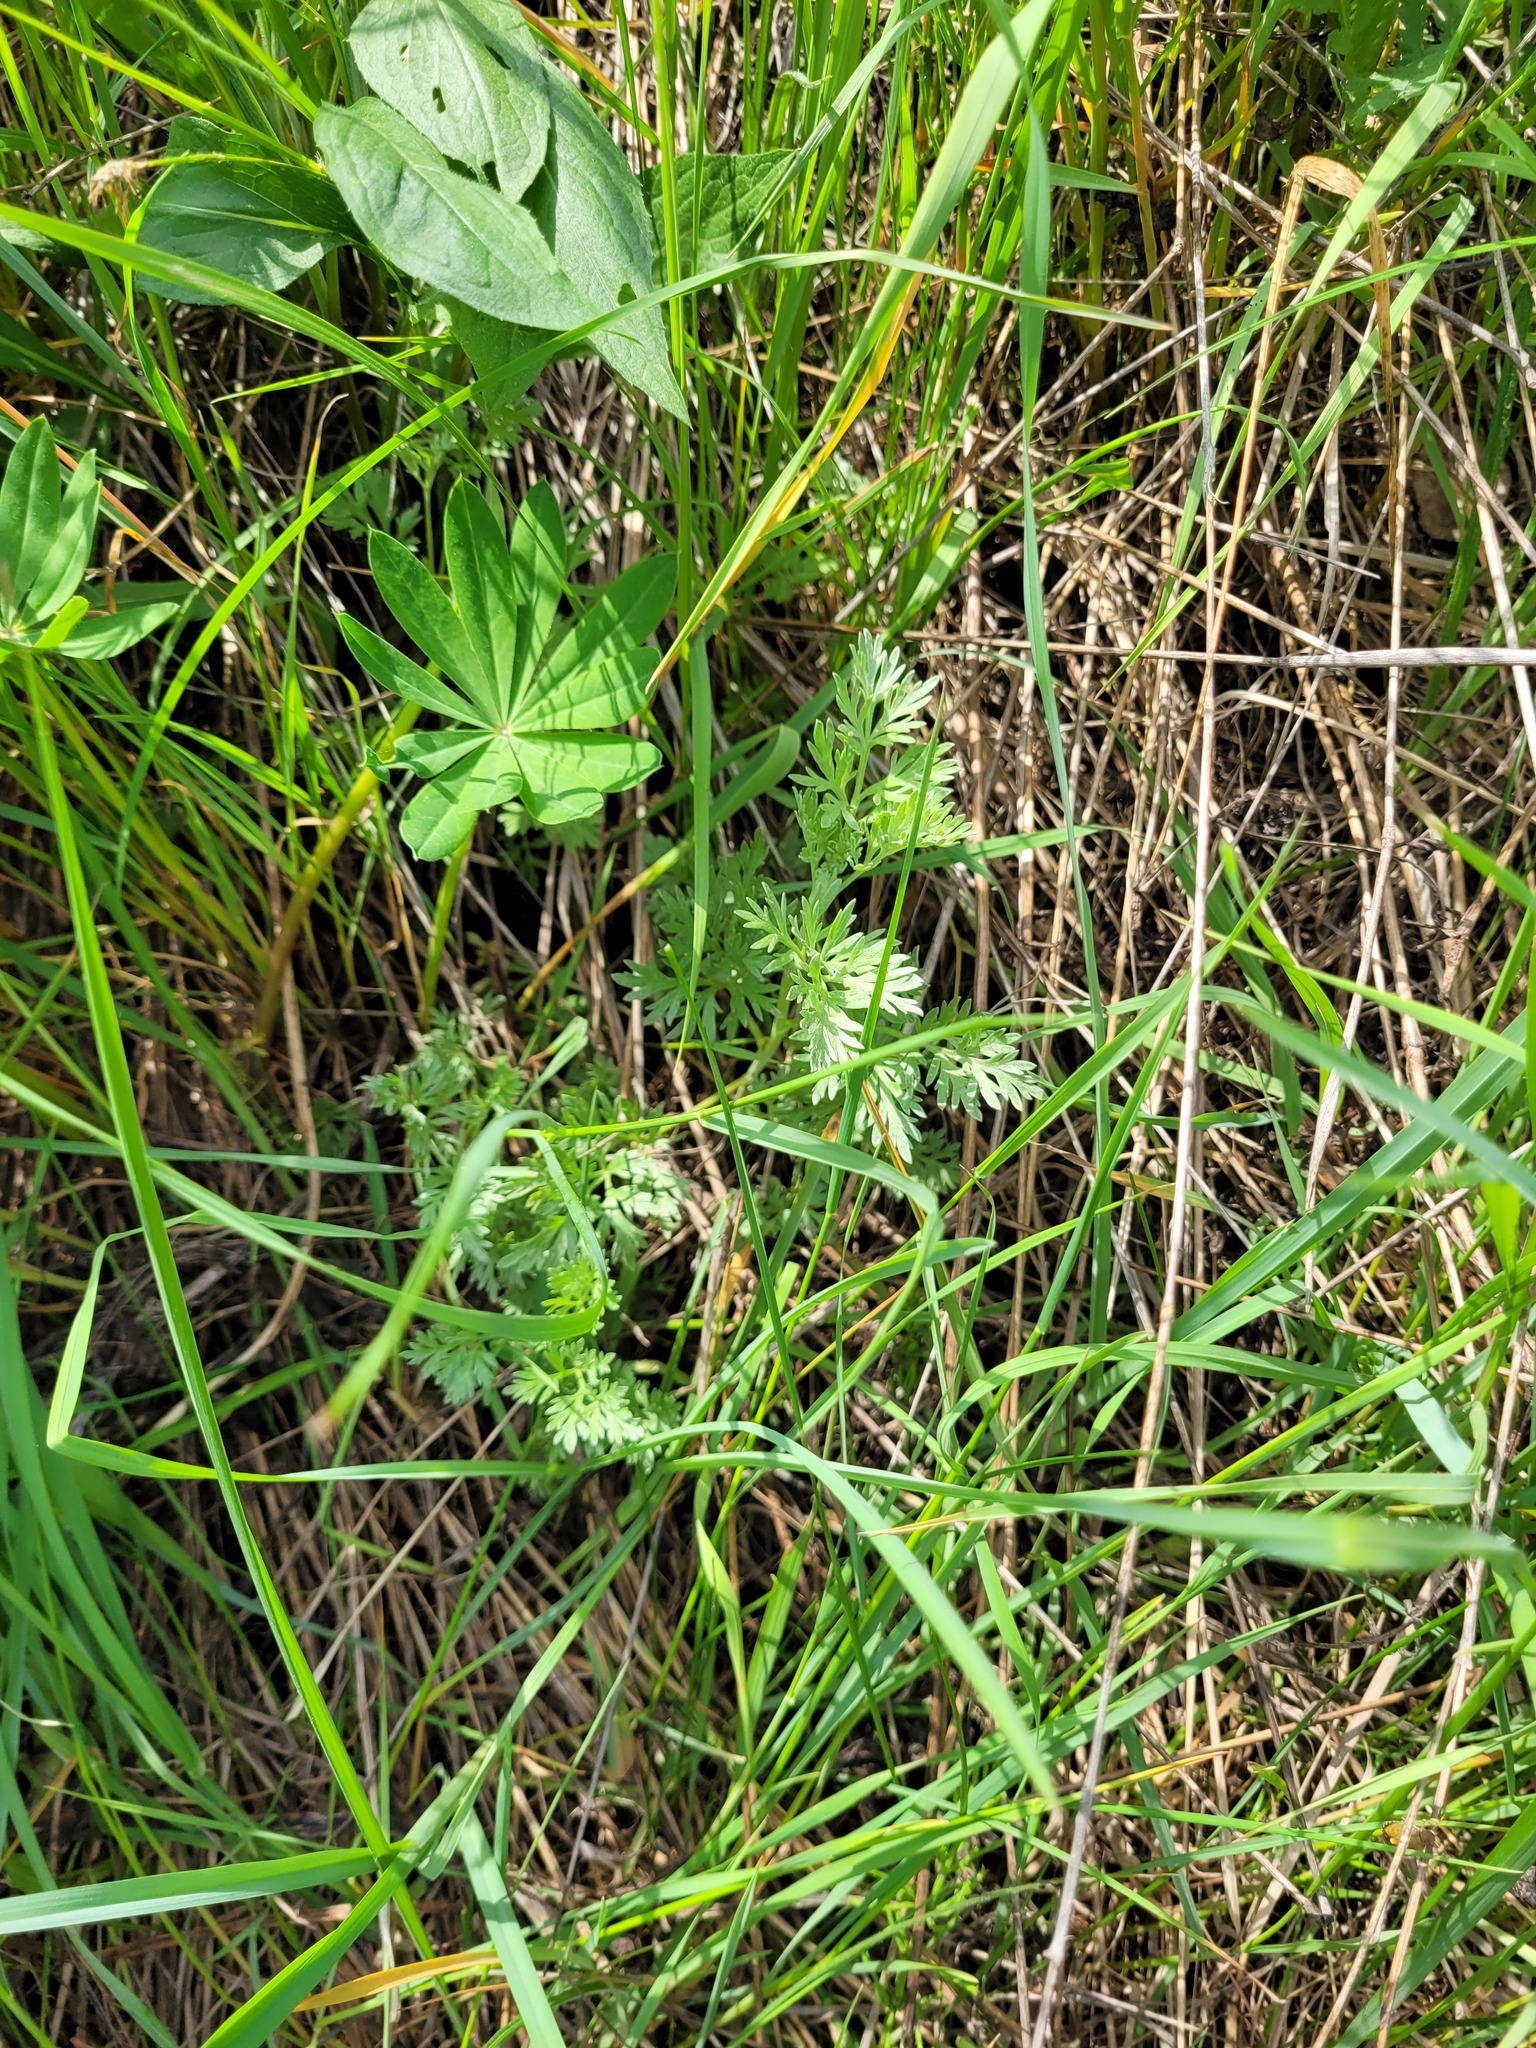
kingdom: Plantae
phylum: Tracheophyta
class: Magnoliopsida
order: Asterales
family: Asteraceae
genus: Artemisia
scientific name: Artemisia absinthium
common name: Wormwood
